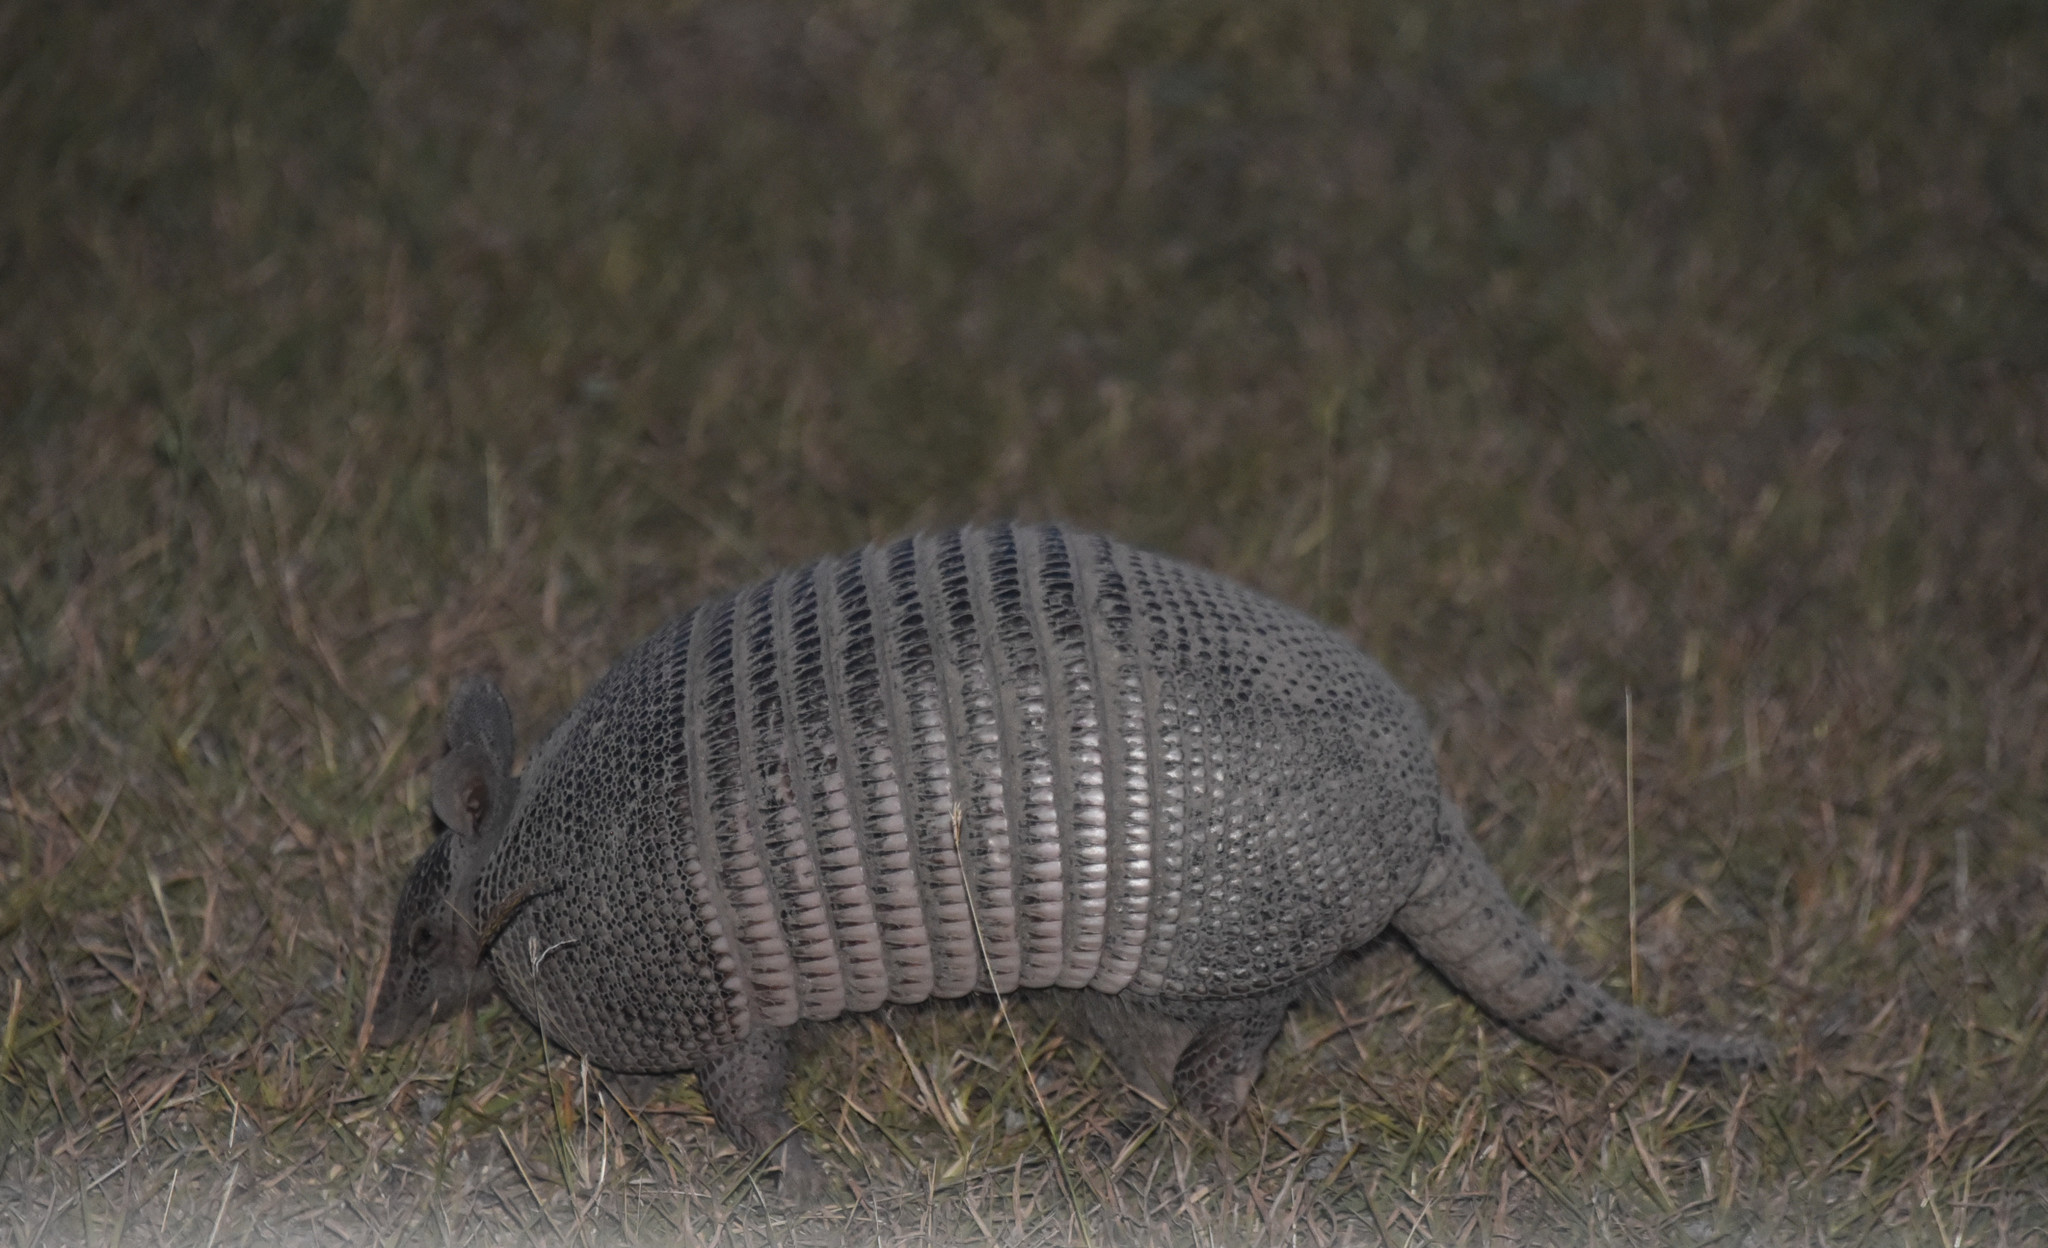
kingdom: Animalia
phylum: Chordata
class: Mammalia
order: Cingulata
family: Dasypodidae
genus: Dasypus
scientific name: Dasypus novemcinctus
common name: Nine-banded armadillo
